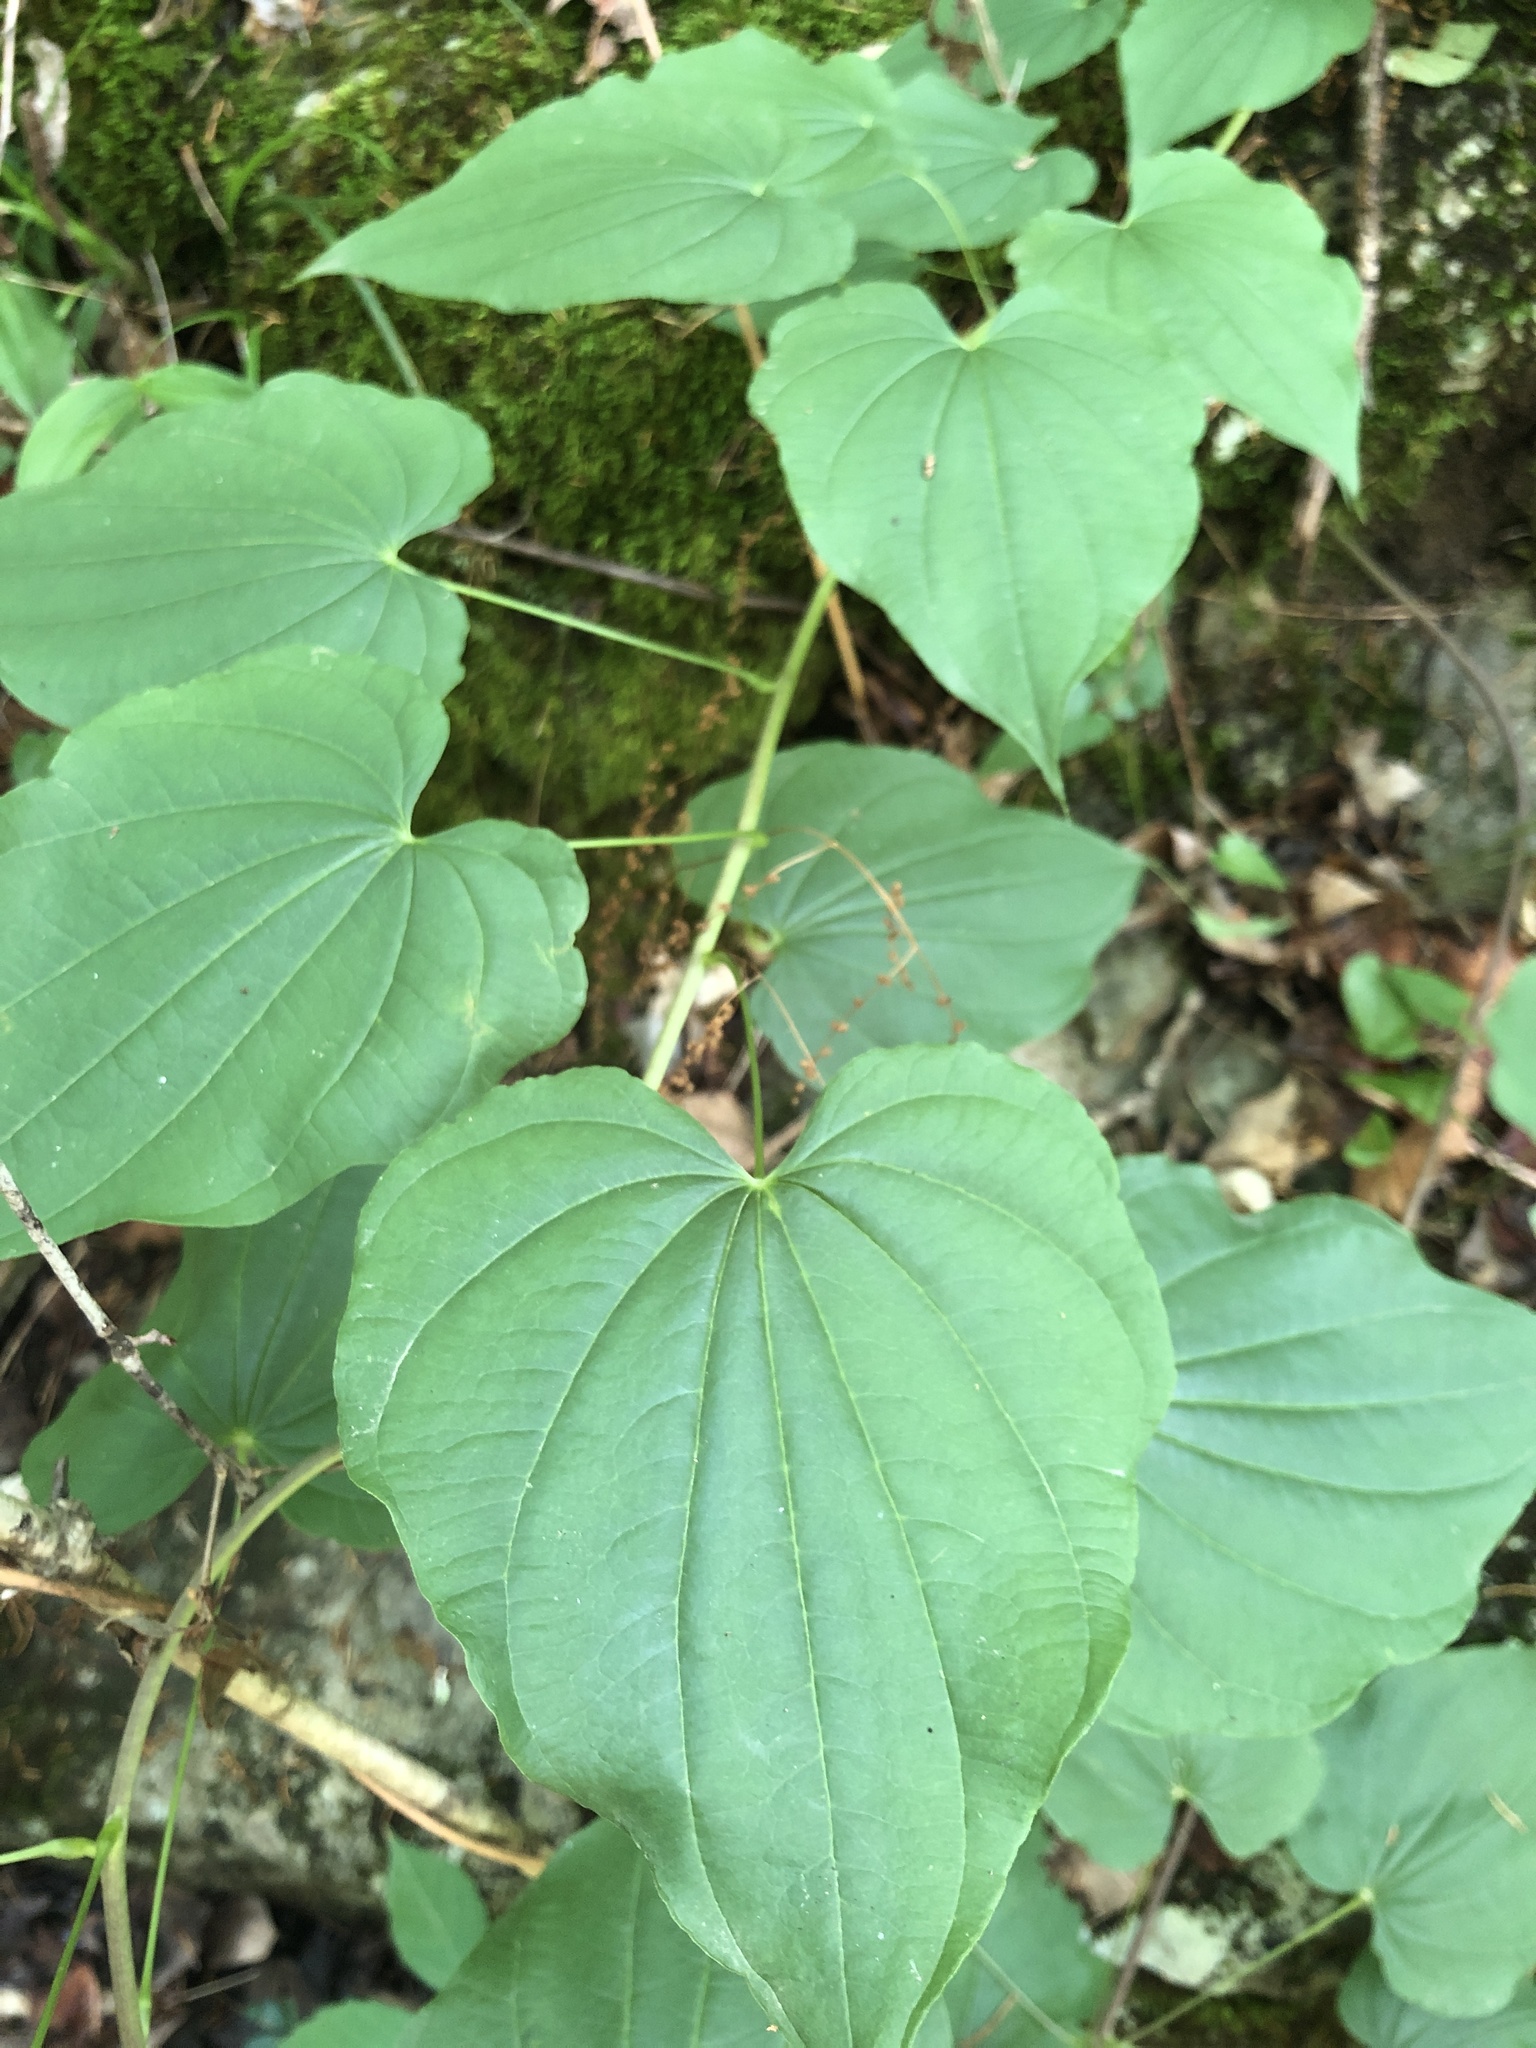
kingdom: Plantae
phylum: Tracheophyta
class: Liliopsida
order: Dioscoreales
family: Dioscoreaceae
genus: Dioscorea
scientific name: Dioscorea villosa
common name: Wild yam
